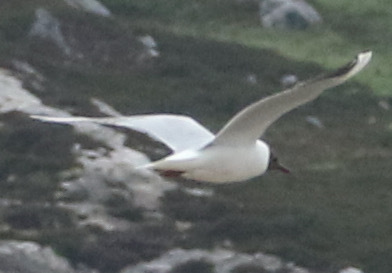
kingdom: Animalia
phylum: Chordata
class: Aves
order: Charadriiformes
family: Laridae
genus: Chroicocephalus
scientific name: Chroicocephalus ridibundus
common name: Black-headed gull
